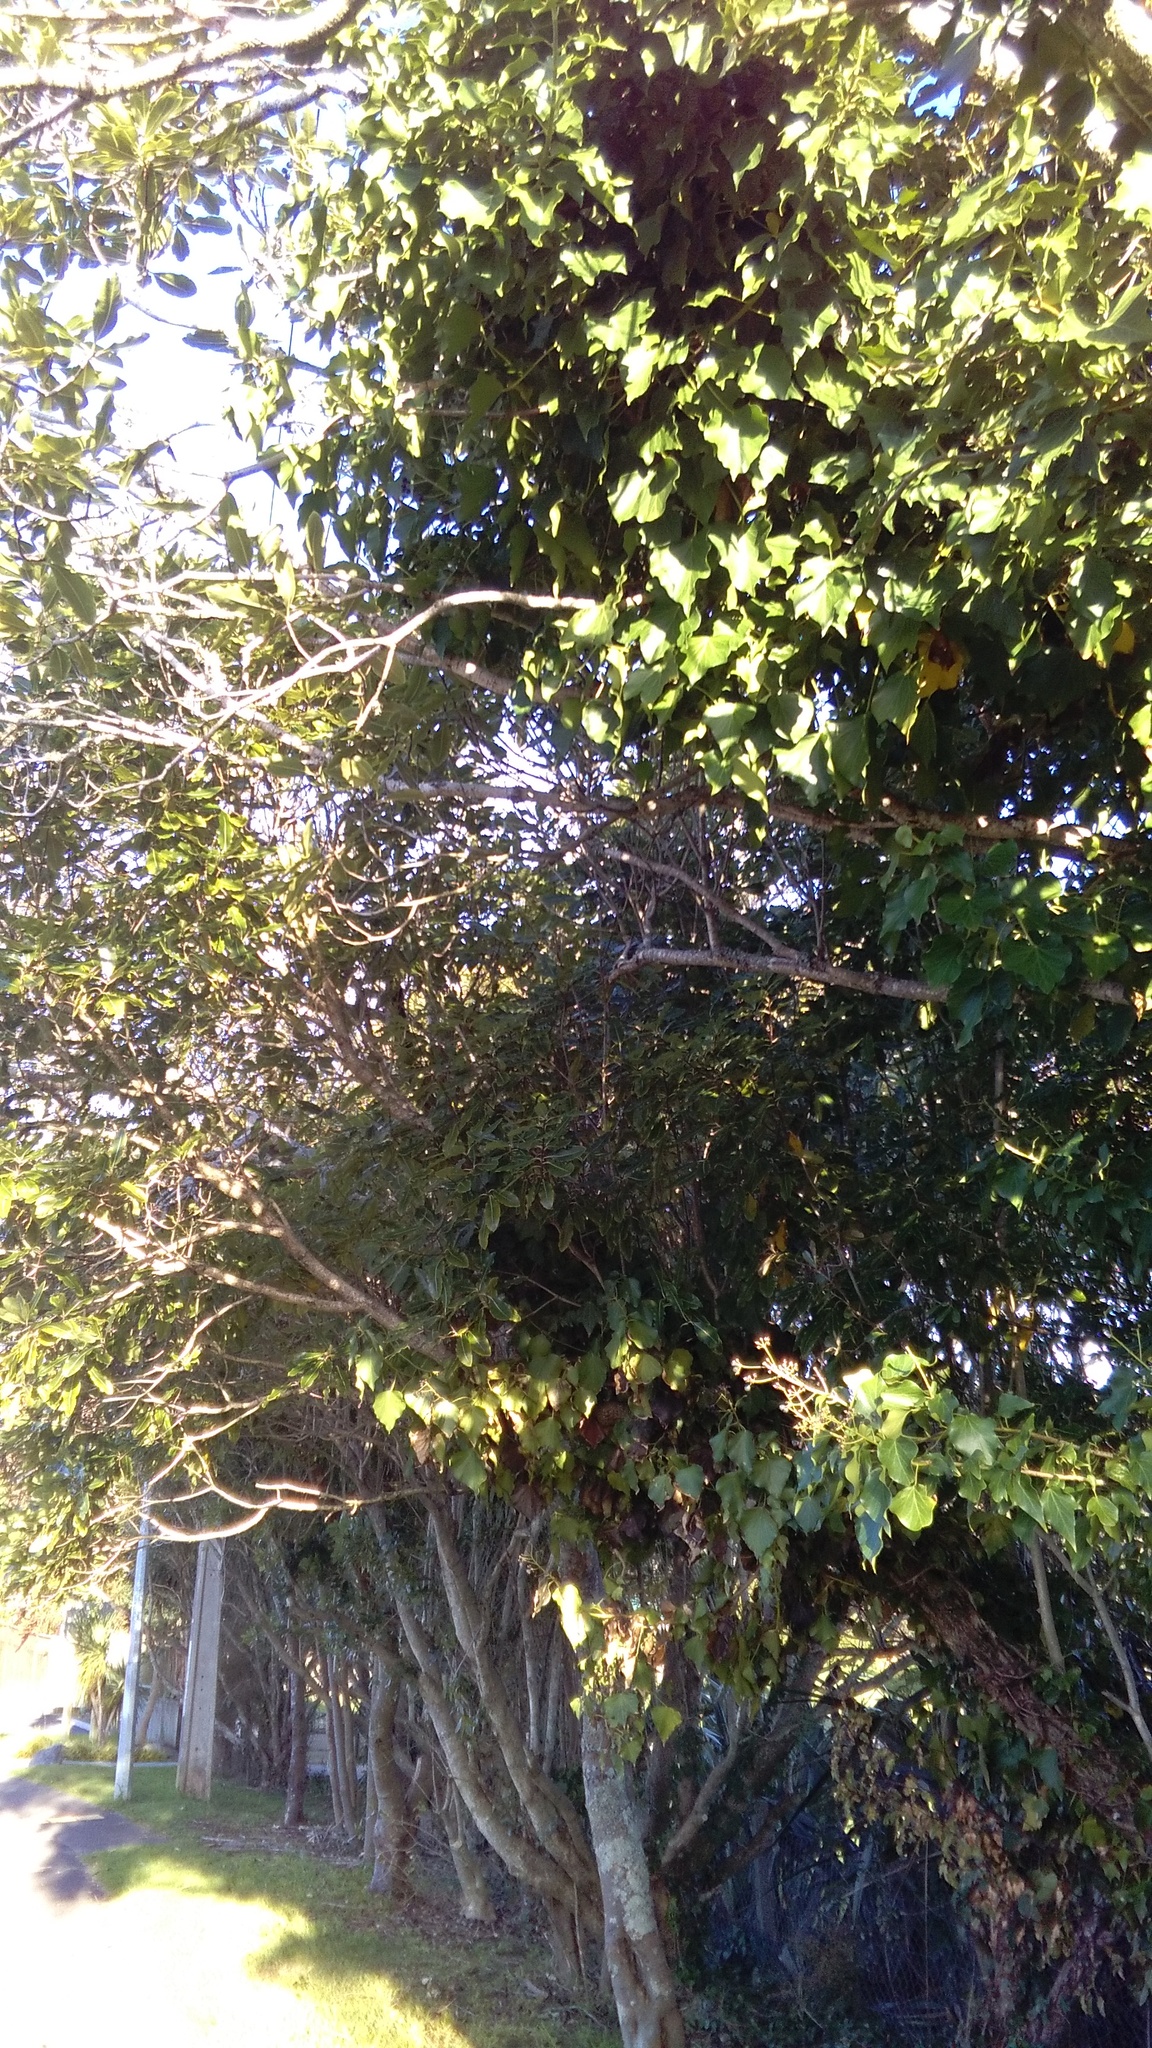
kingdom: Plantae
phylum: Tracheophyta
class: Magnoliopsida
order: Apiales
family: Araliaceae
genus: Hedera
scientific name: Hedera helix
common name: Ivy
